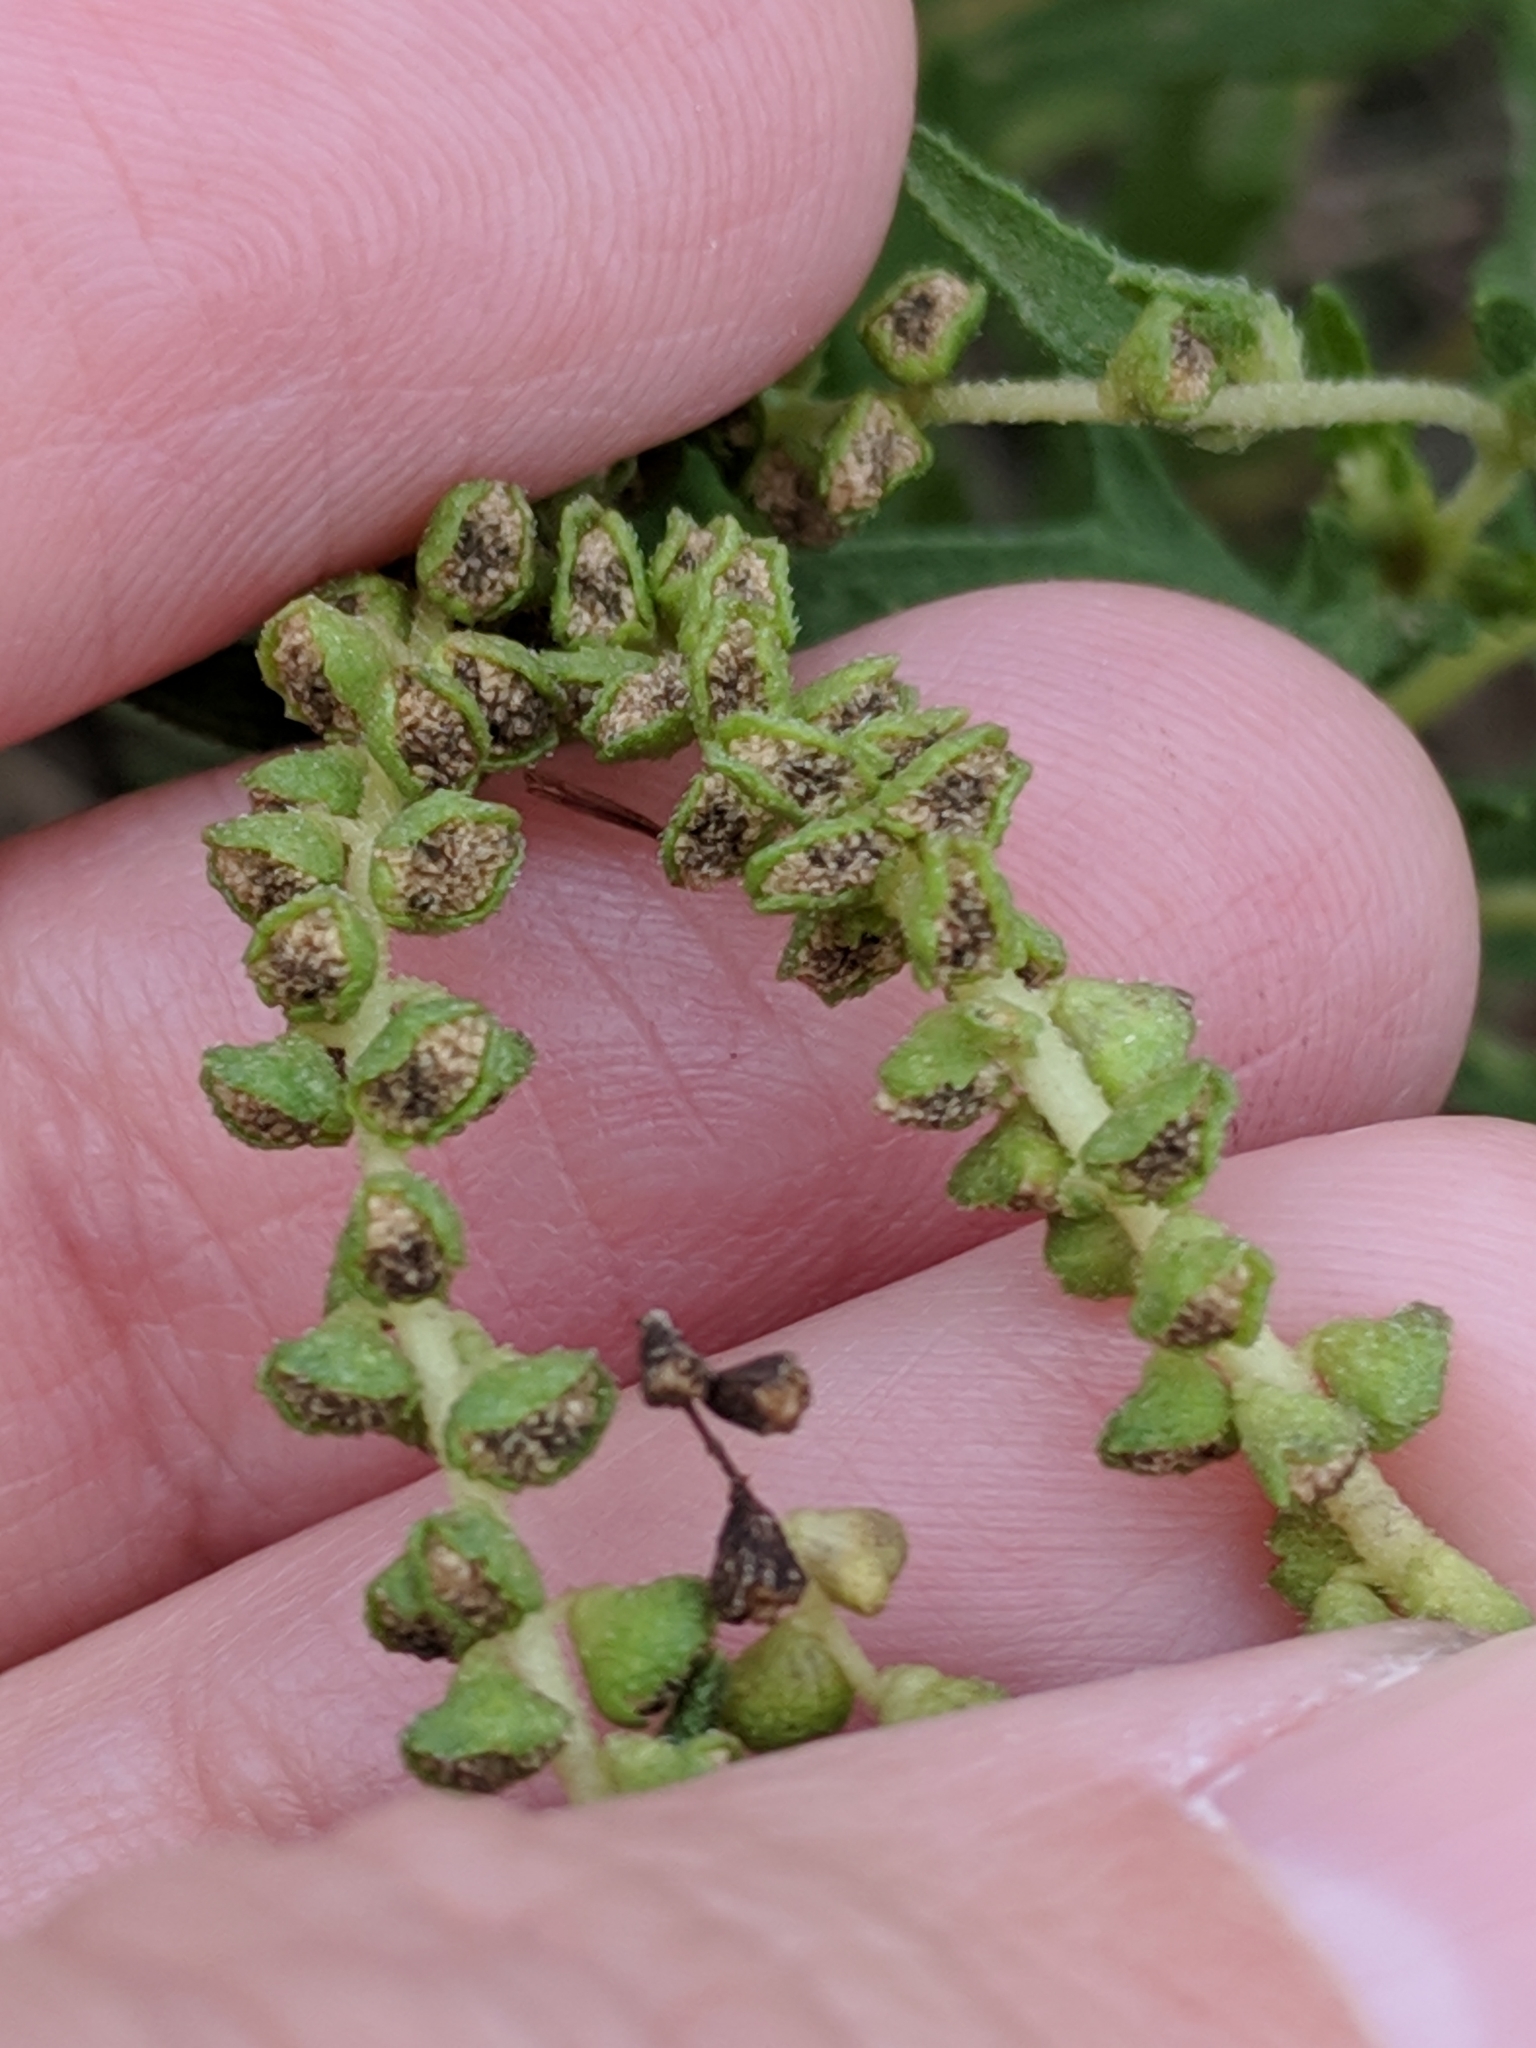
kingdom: Plantae
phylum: Tracheophyta
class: Magnoliopsida
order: Asterales
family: Asteraceae
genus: Ambrosia
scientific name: Ambrosia psilostachya
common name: Perennial ragweed
